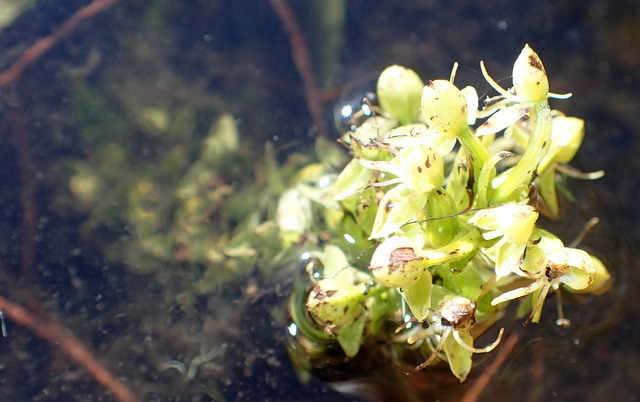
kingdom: Plantae
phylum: Tracheophyta
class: Liliopsida
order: Asparagales
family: Orchidaceae
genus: Habenaria
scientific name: Habenaria repens
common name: Water orchid
